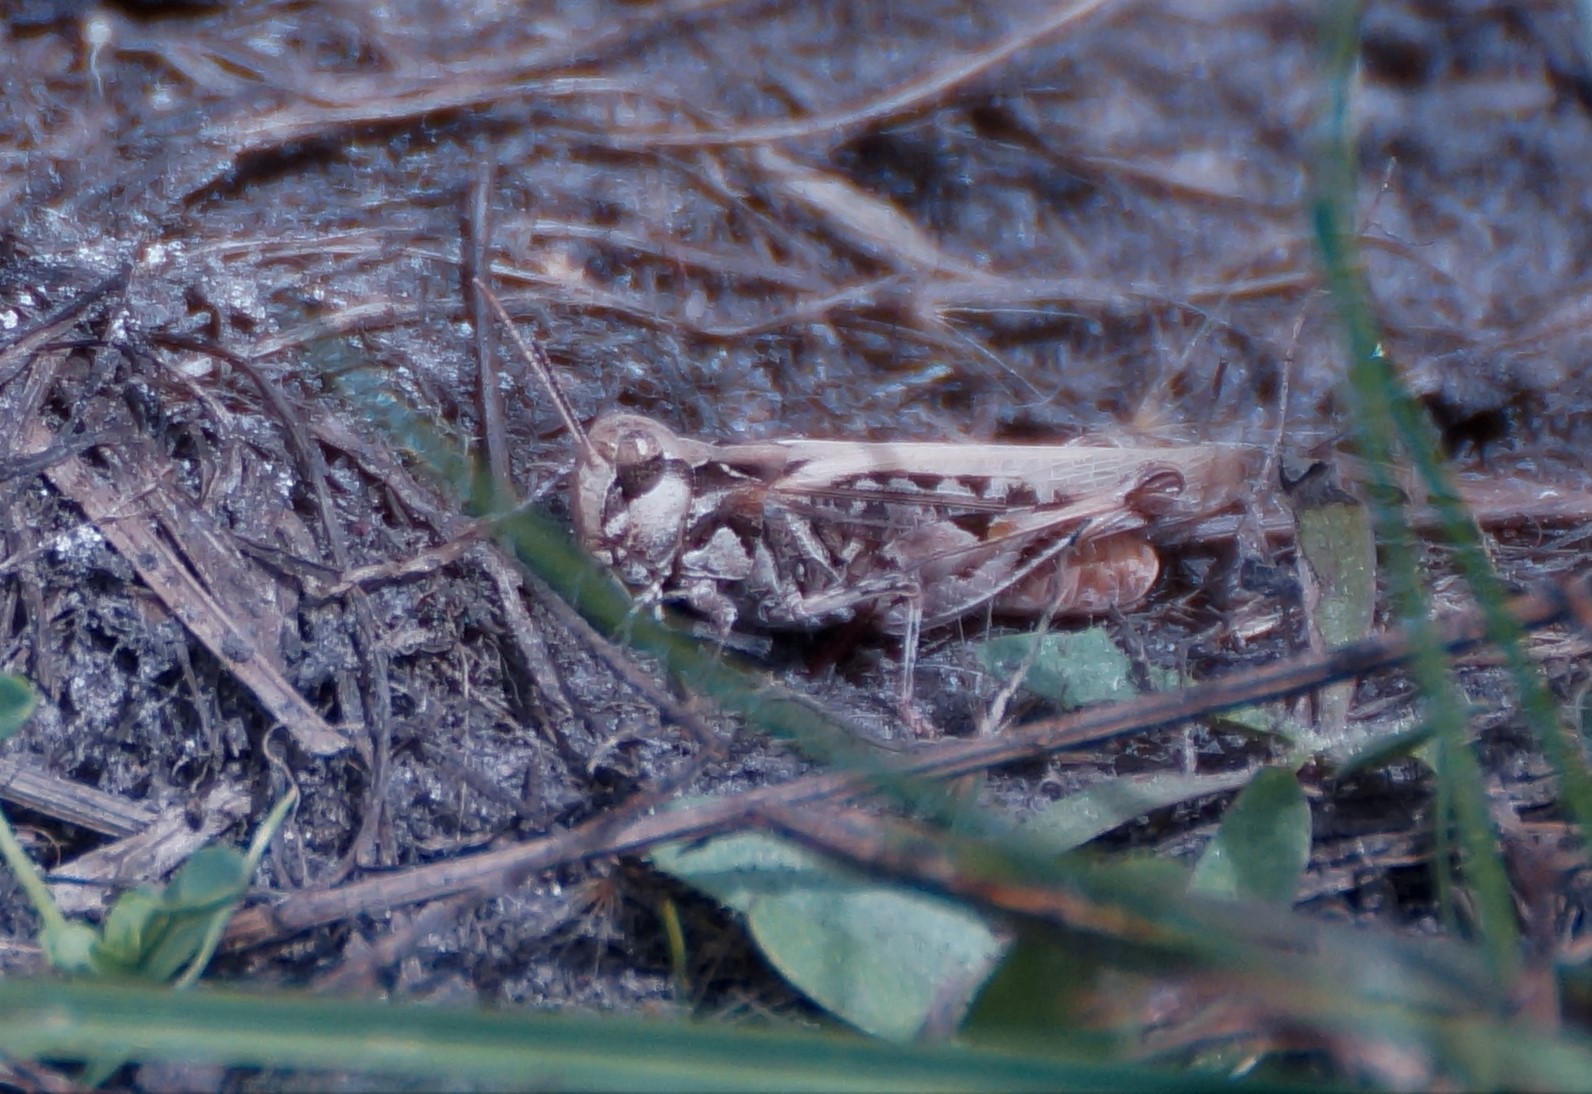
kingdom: Animalia
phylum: Arthropoda
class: Insecta
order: Orthoptera
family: Acrididae
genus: Austroicetes
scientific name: Austroicetes vulgaris
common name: Southeastern austroicetes
